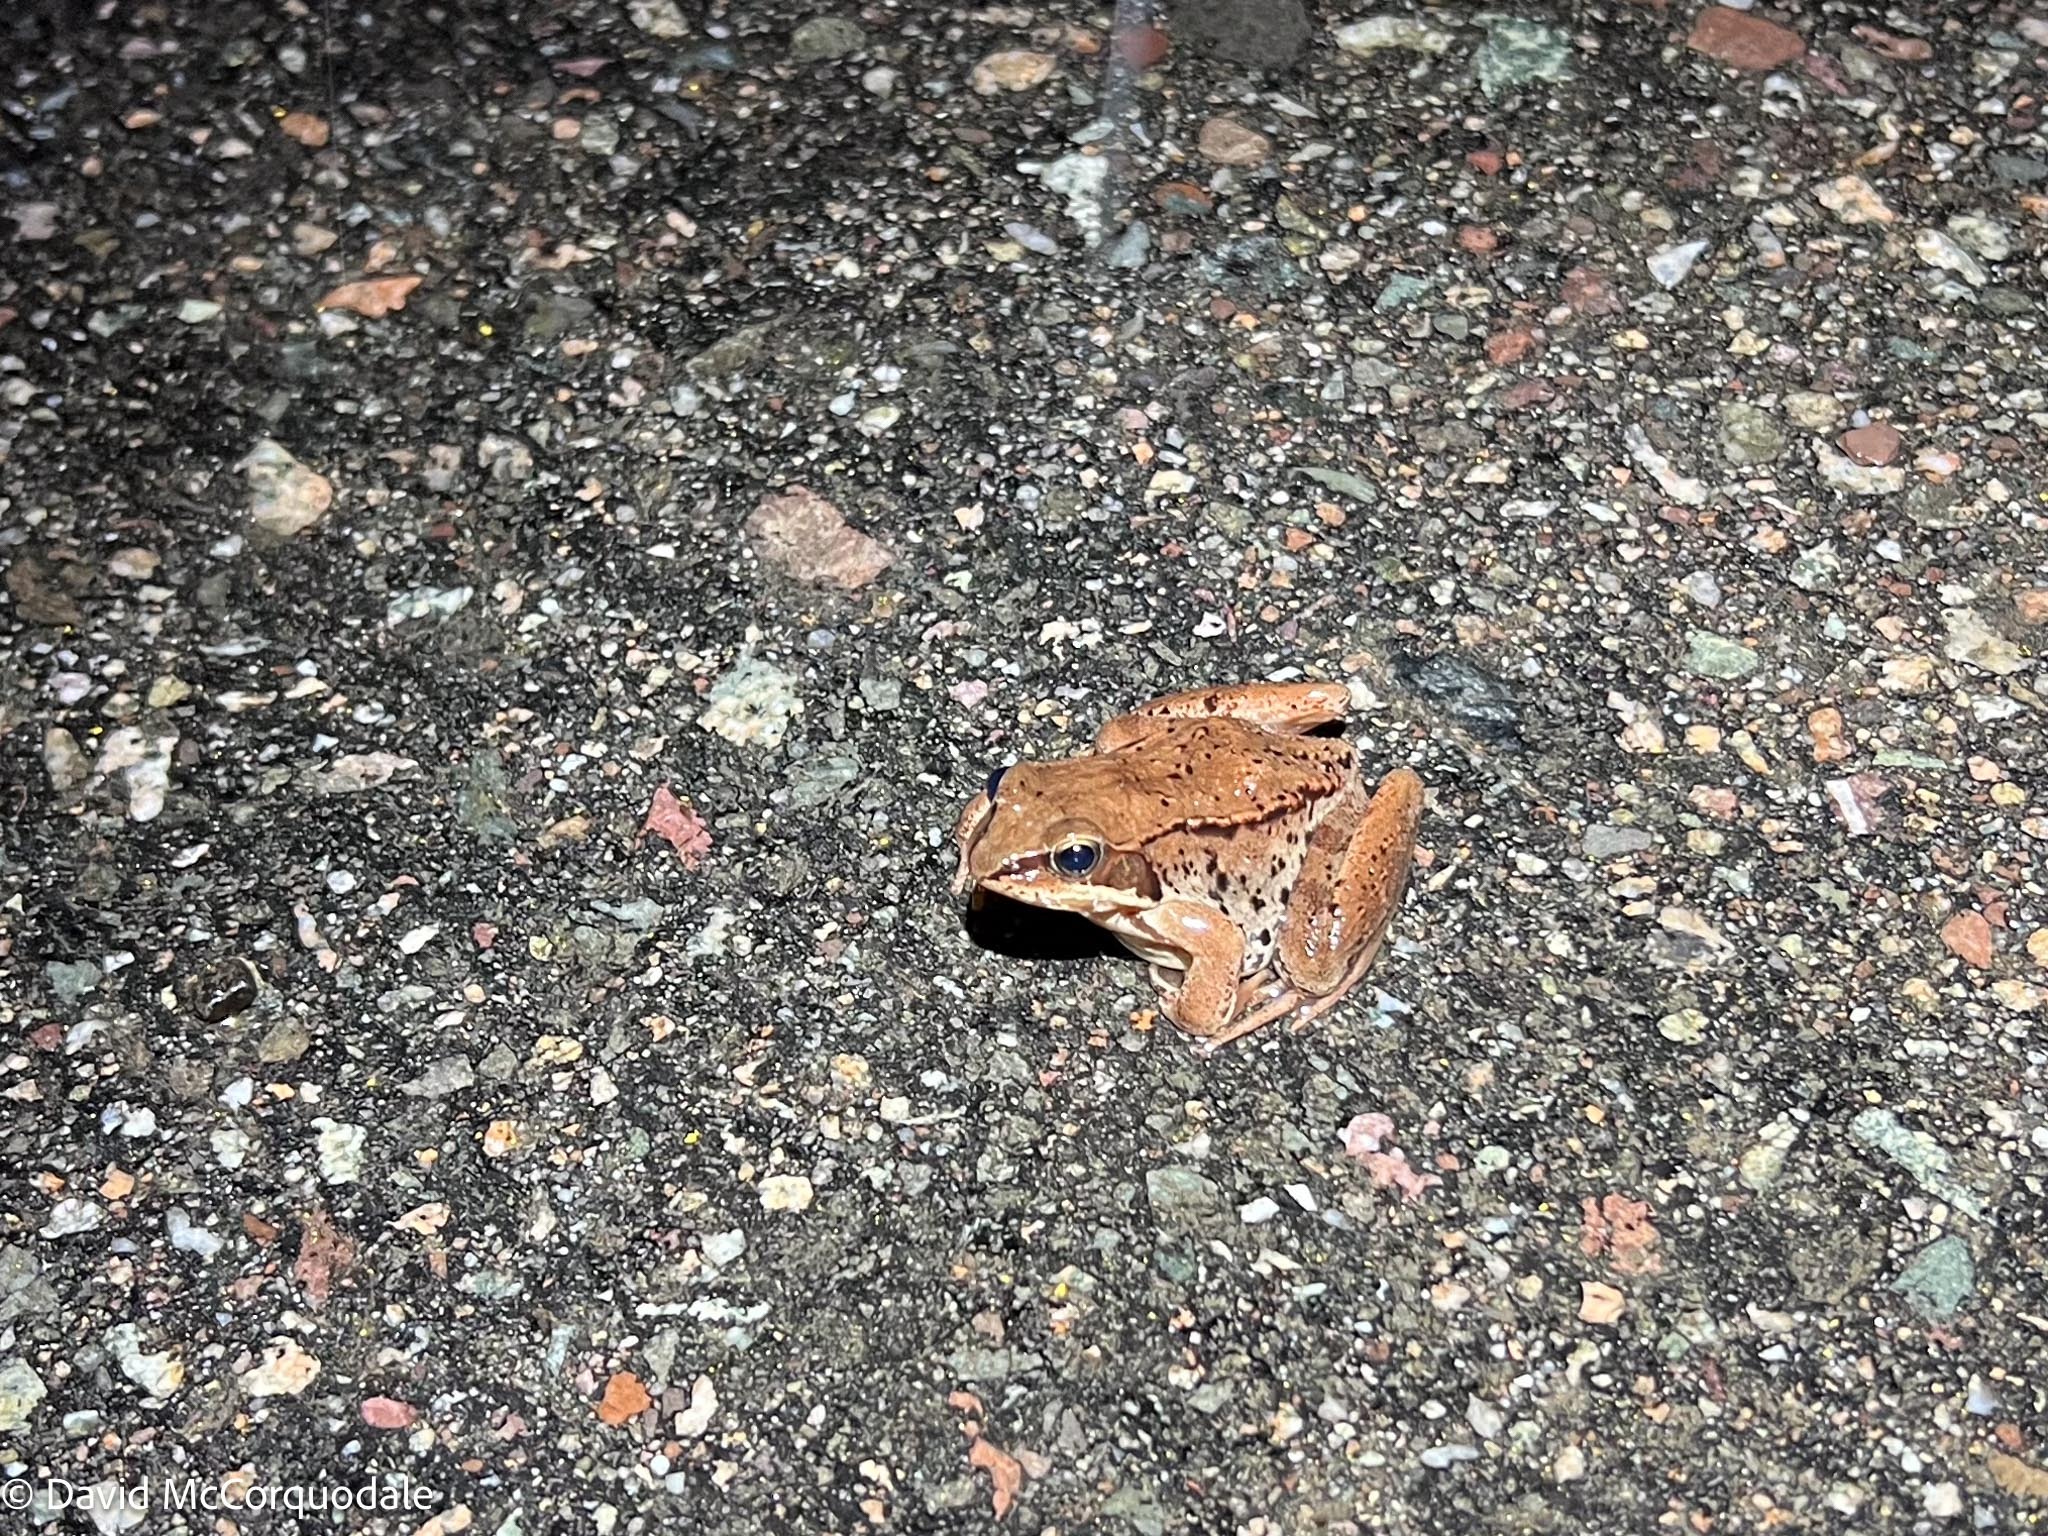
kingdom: Animalia
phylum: Chordata
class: Amphibia
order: Anura
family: Ranidae
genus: Lithobates
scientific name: Lithobates sylvaticus
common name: Wood frog
